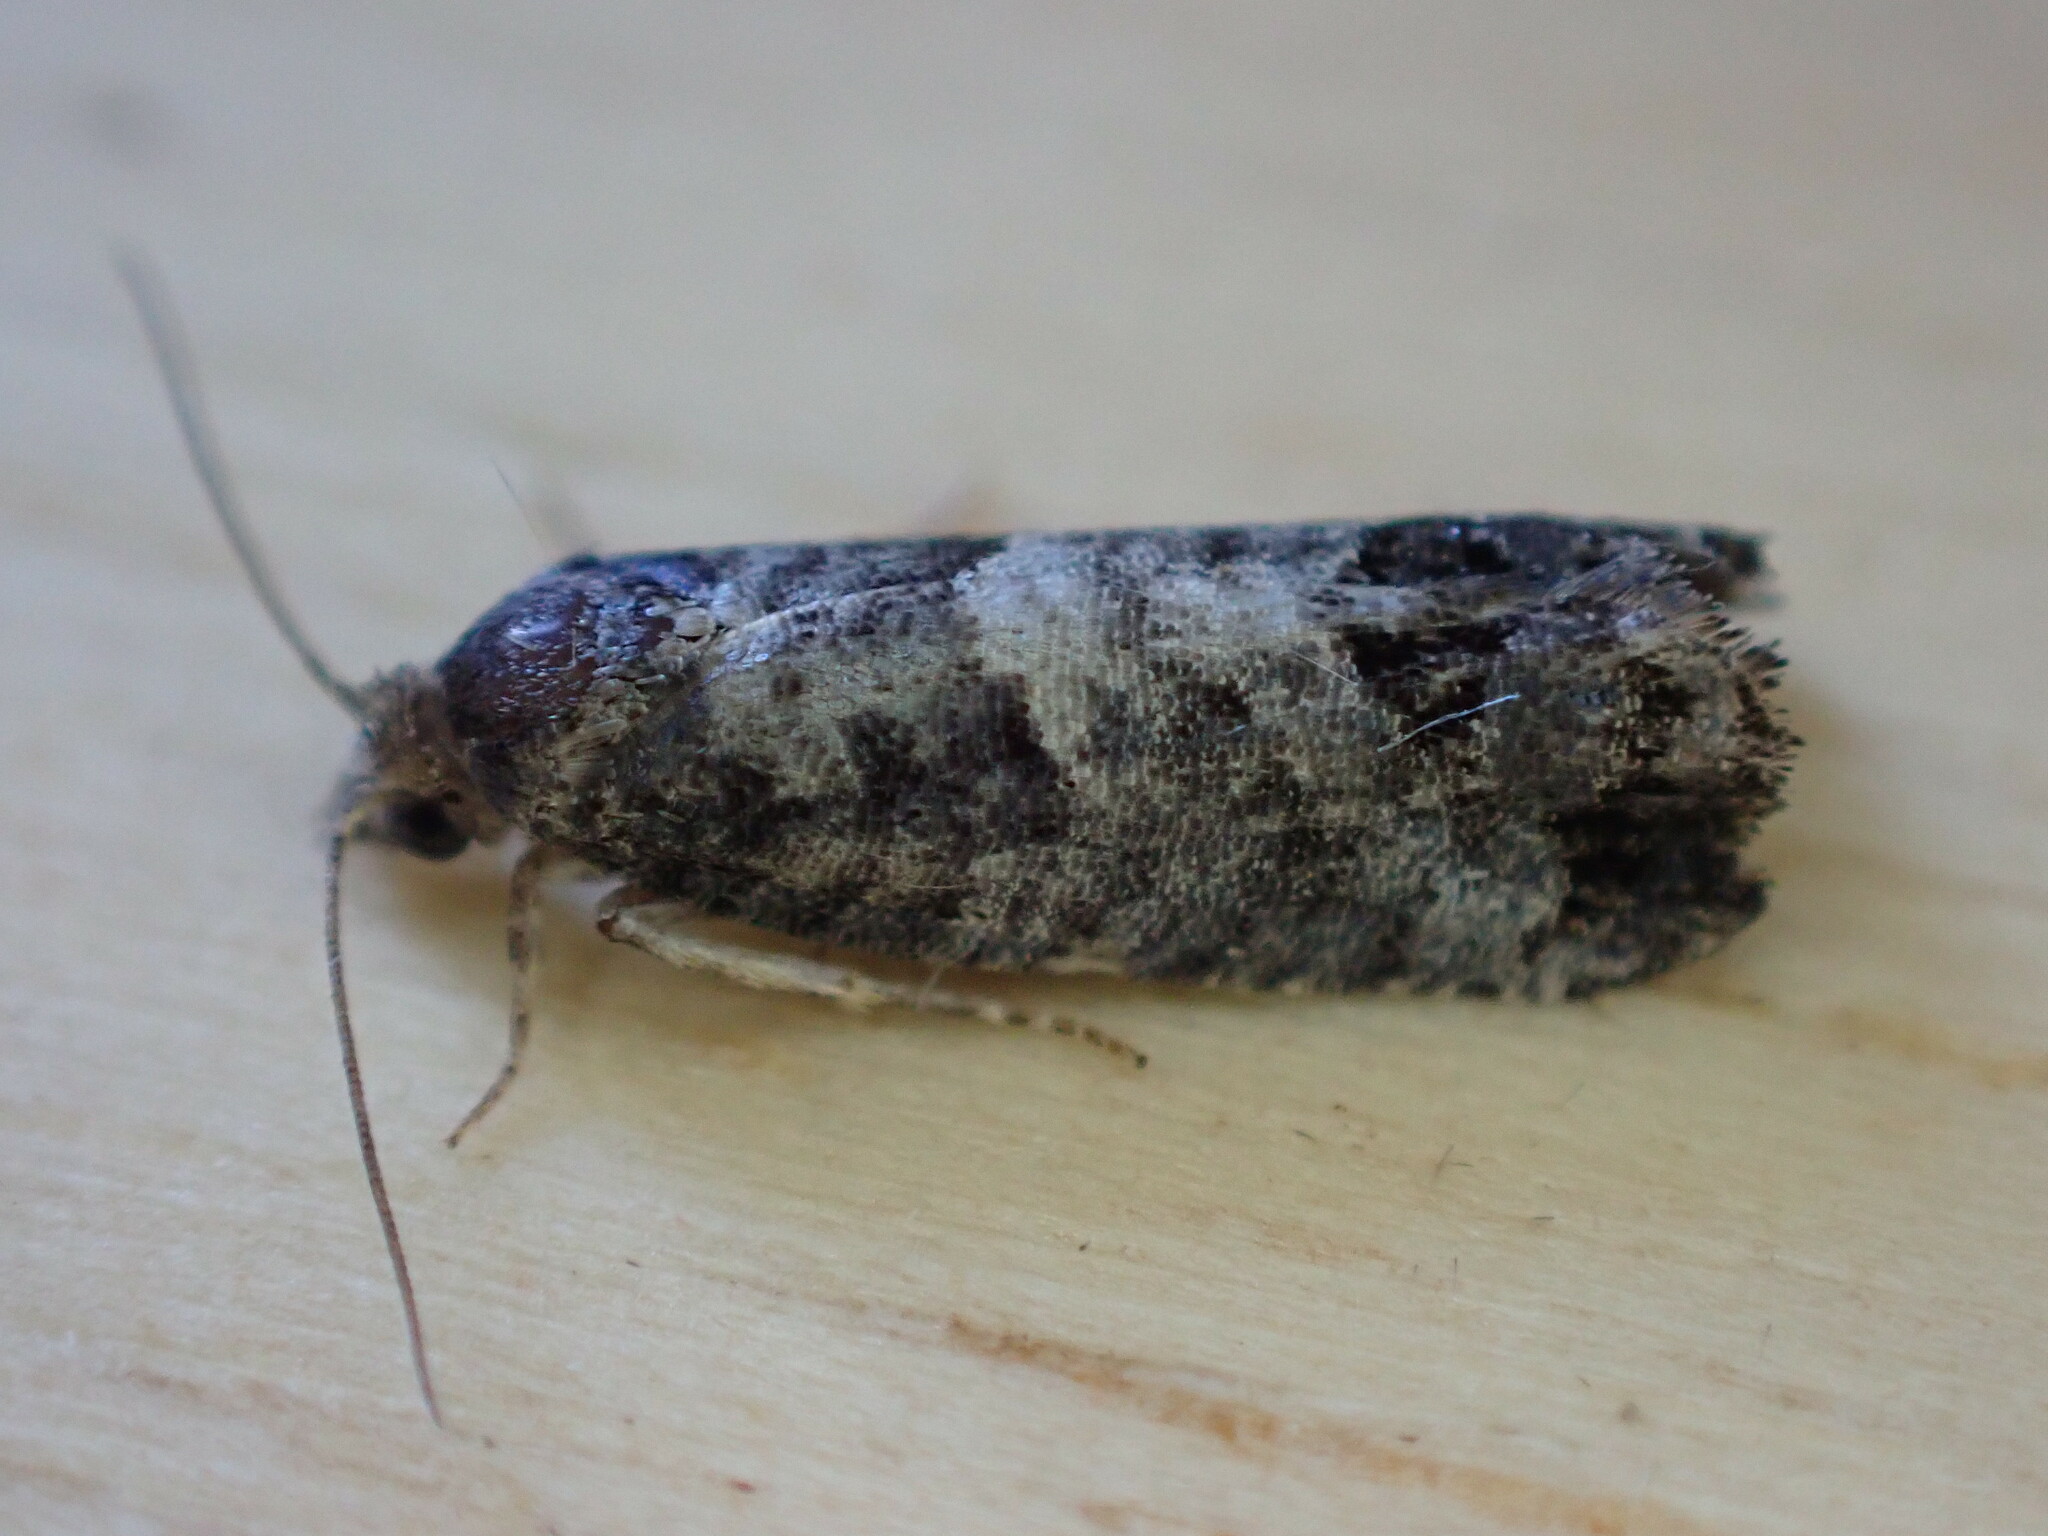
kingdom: Animalia
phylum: Arthropoda
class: Insecta
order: Lepidoptera
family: Tortricidae
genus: Spilonota
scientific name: Spilonota ocellana
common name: Bud moth
